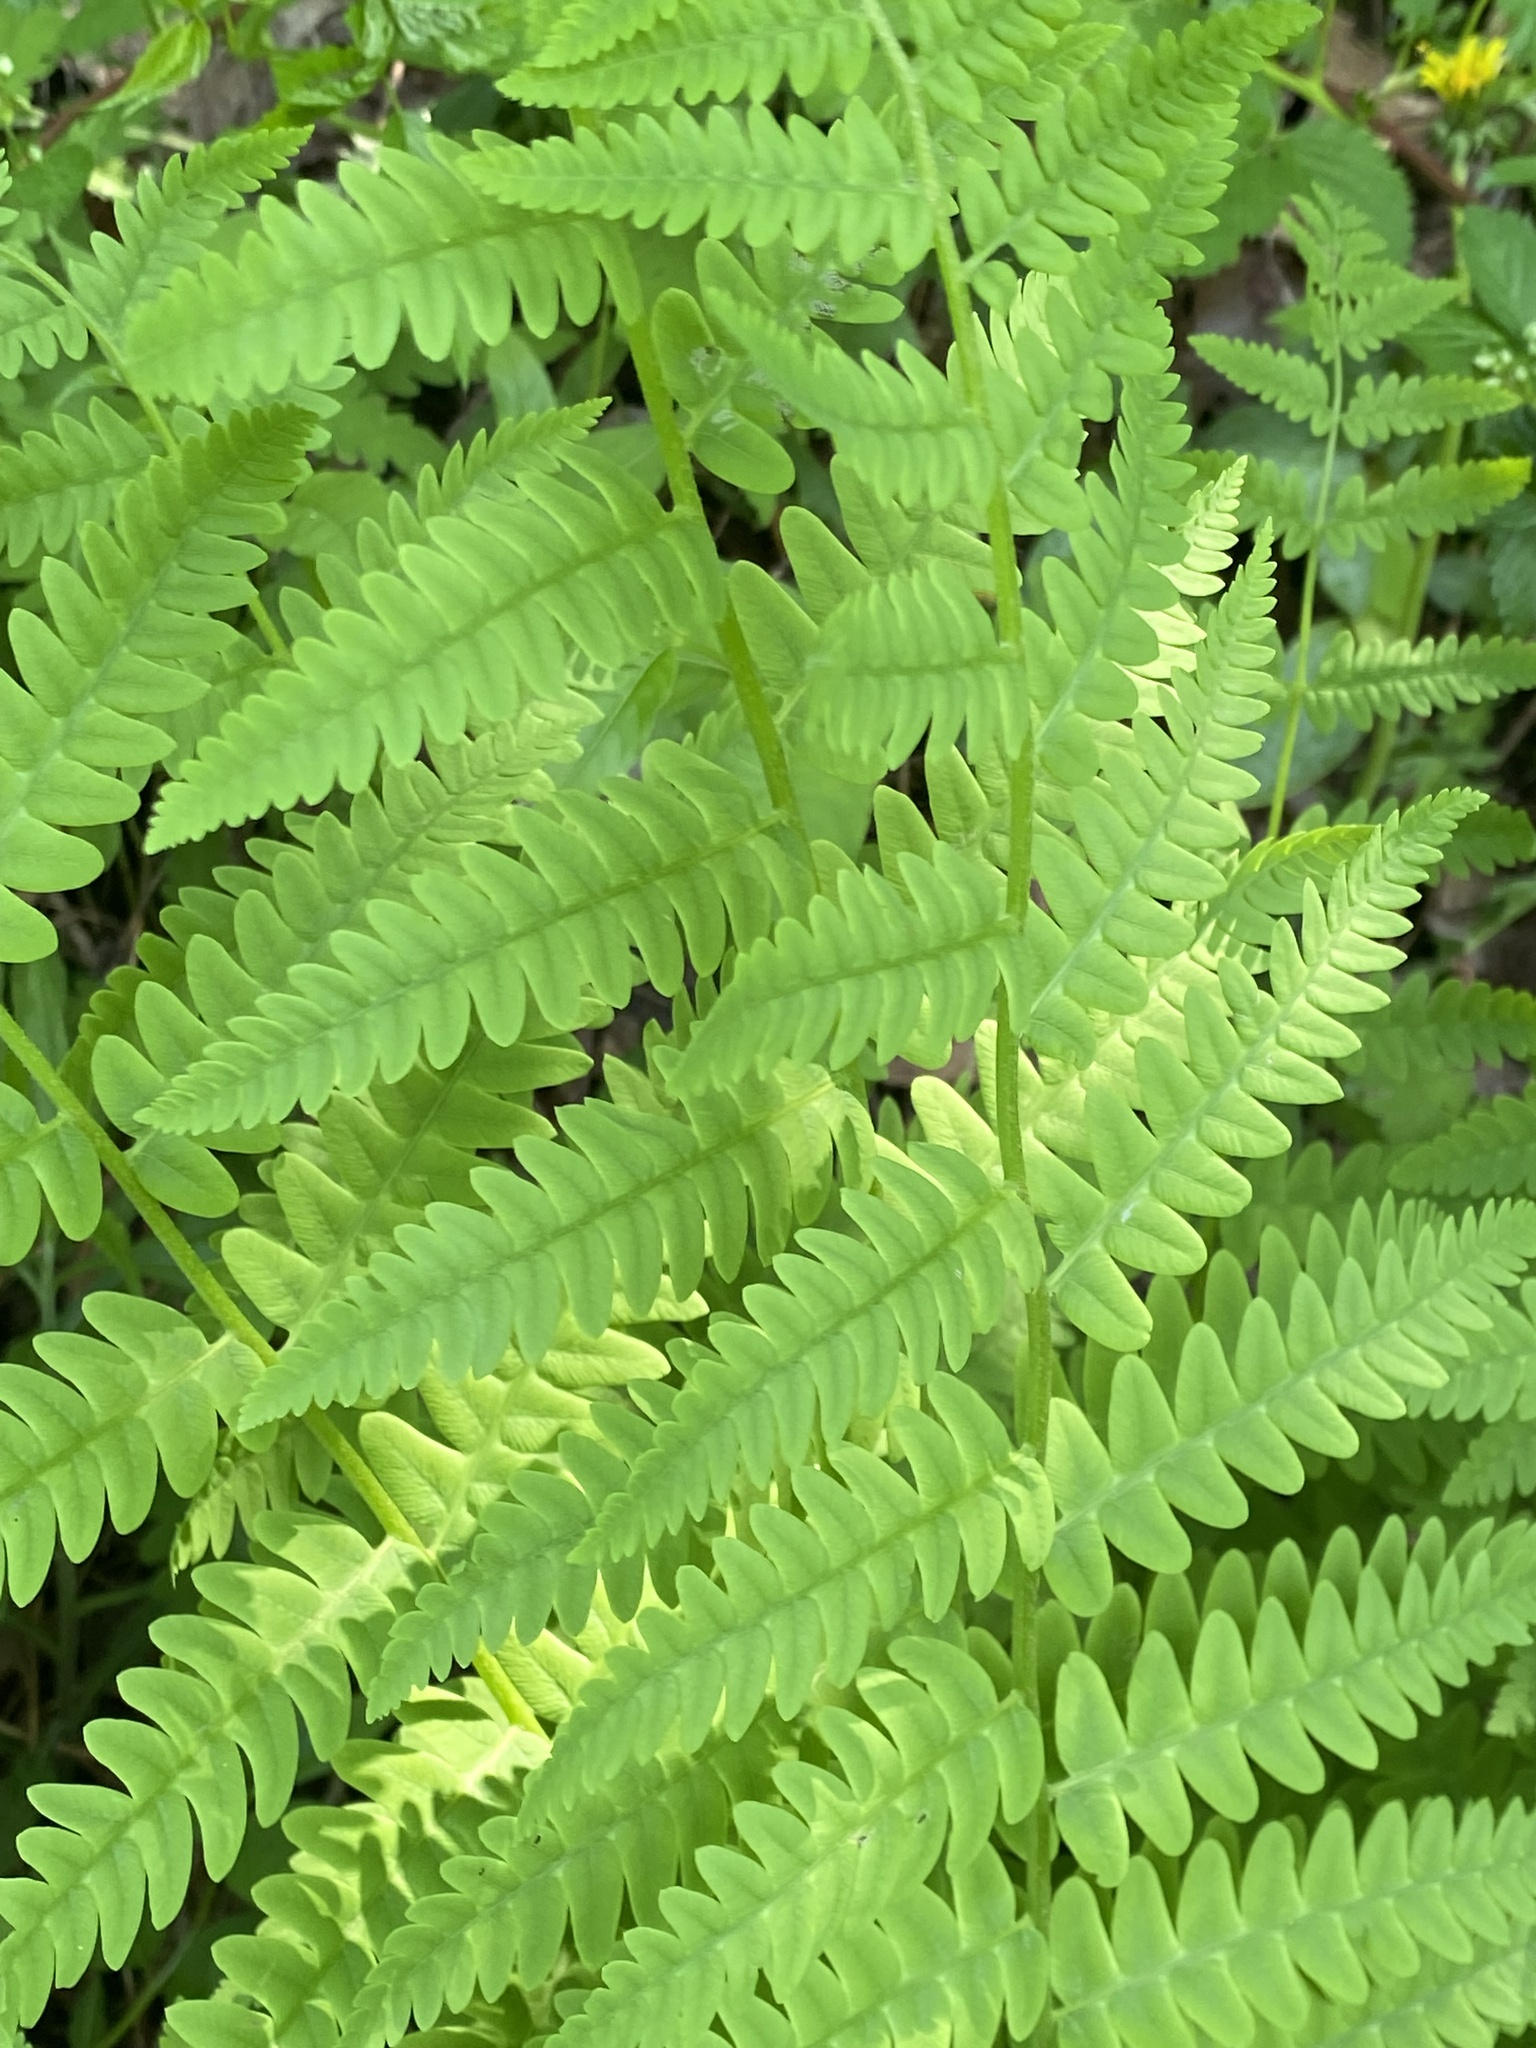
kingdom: Plantae
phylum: Tracheophyta
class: Polypodiopsida
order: Osmundales
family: Osmundaceae
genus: Claytosmunda
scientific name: Claytosmunda claytoniana
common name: Clayton's fern
